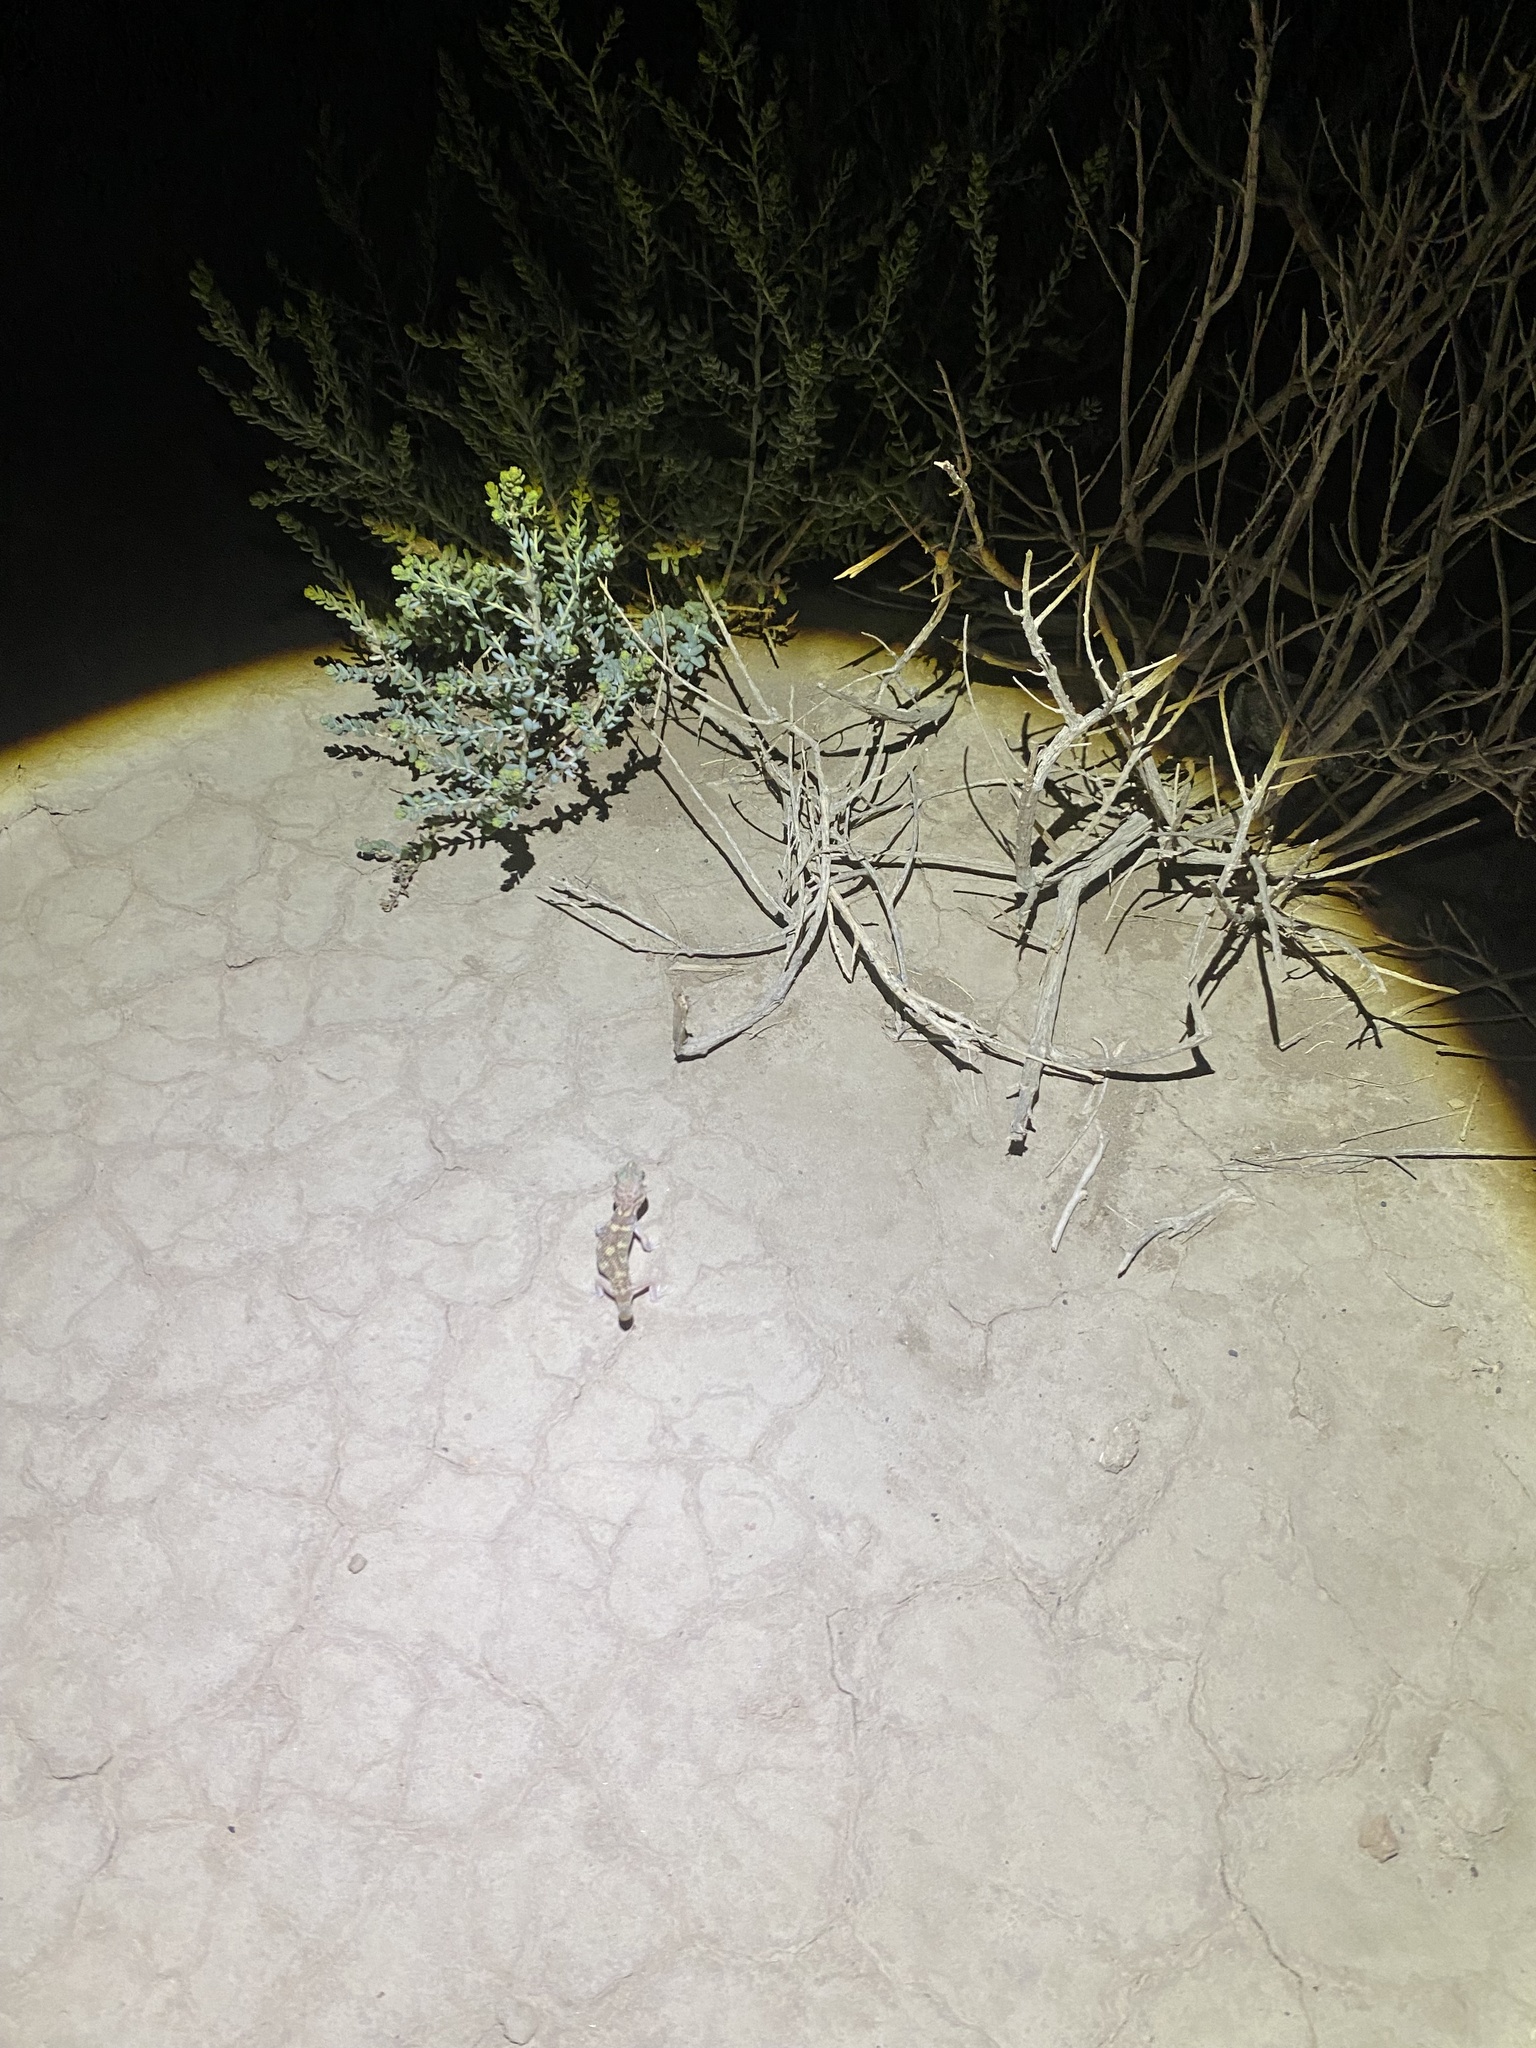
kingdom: Animalia
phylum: Chordata
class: Squamata
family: Sphaerodactylidae
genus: Teratoscincus
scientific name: Teratoscincus bedriagai
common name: Bedriaga's plate-tailed gecko
